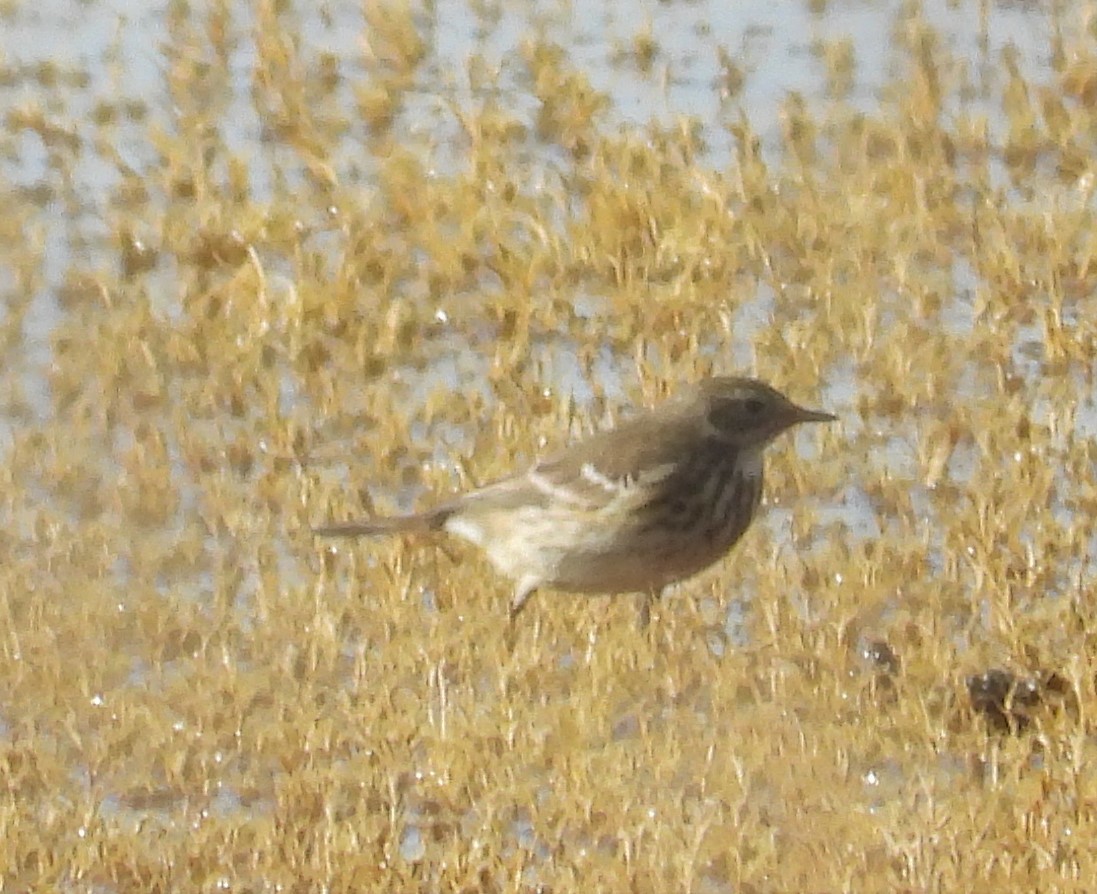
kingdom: Animalia
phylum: Chordata
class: Aves
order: Passeriformes
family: Motacillidae
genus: Anthus
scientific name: Anthus rubescens
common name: Buff-bellied pipit
